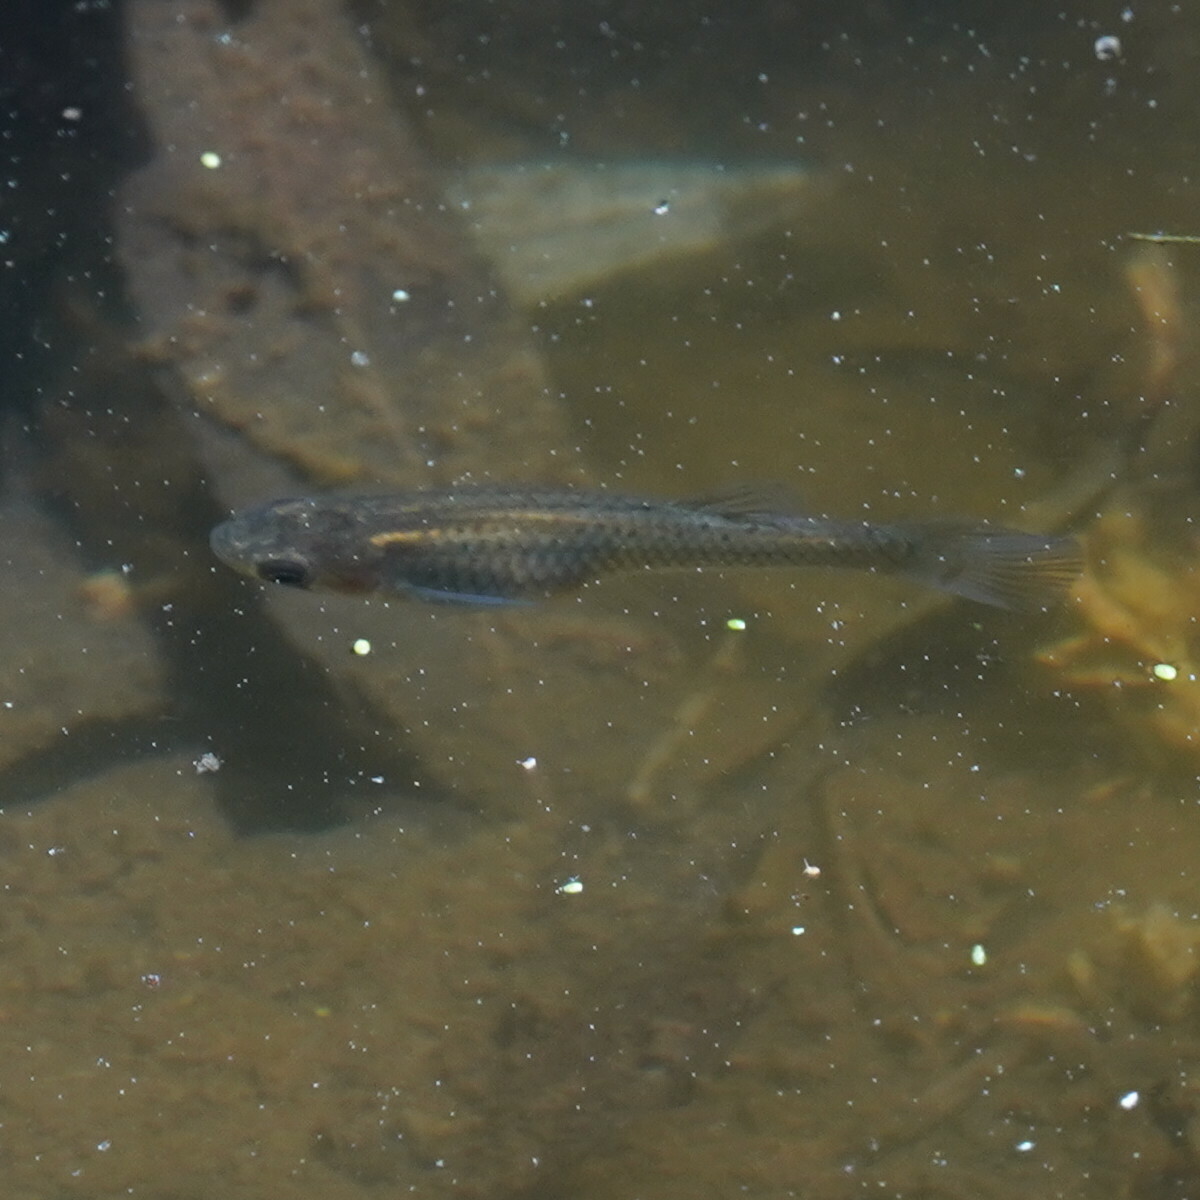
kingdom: Animalia
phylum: Chordata
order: Cyprinodontiformes
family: Poeciliidae
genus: Gambusia
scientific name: Gambusia affinis
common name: Mosquitofish
